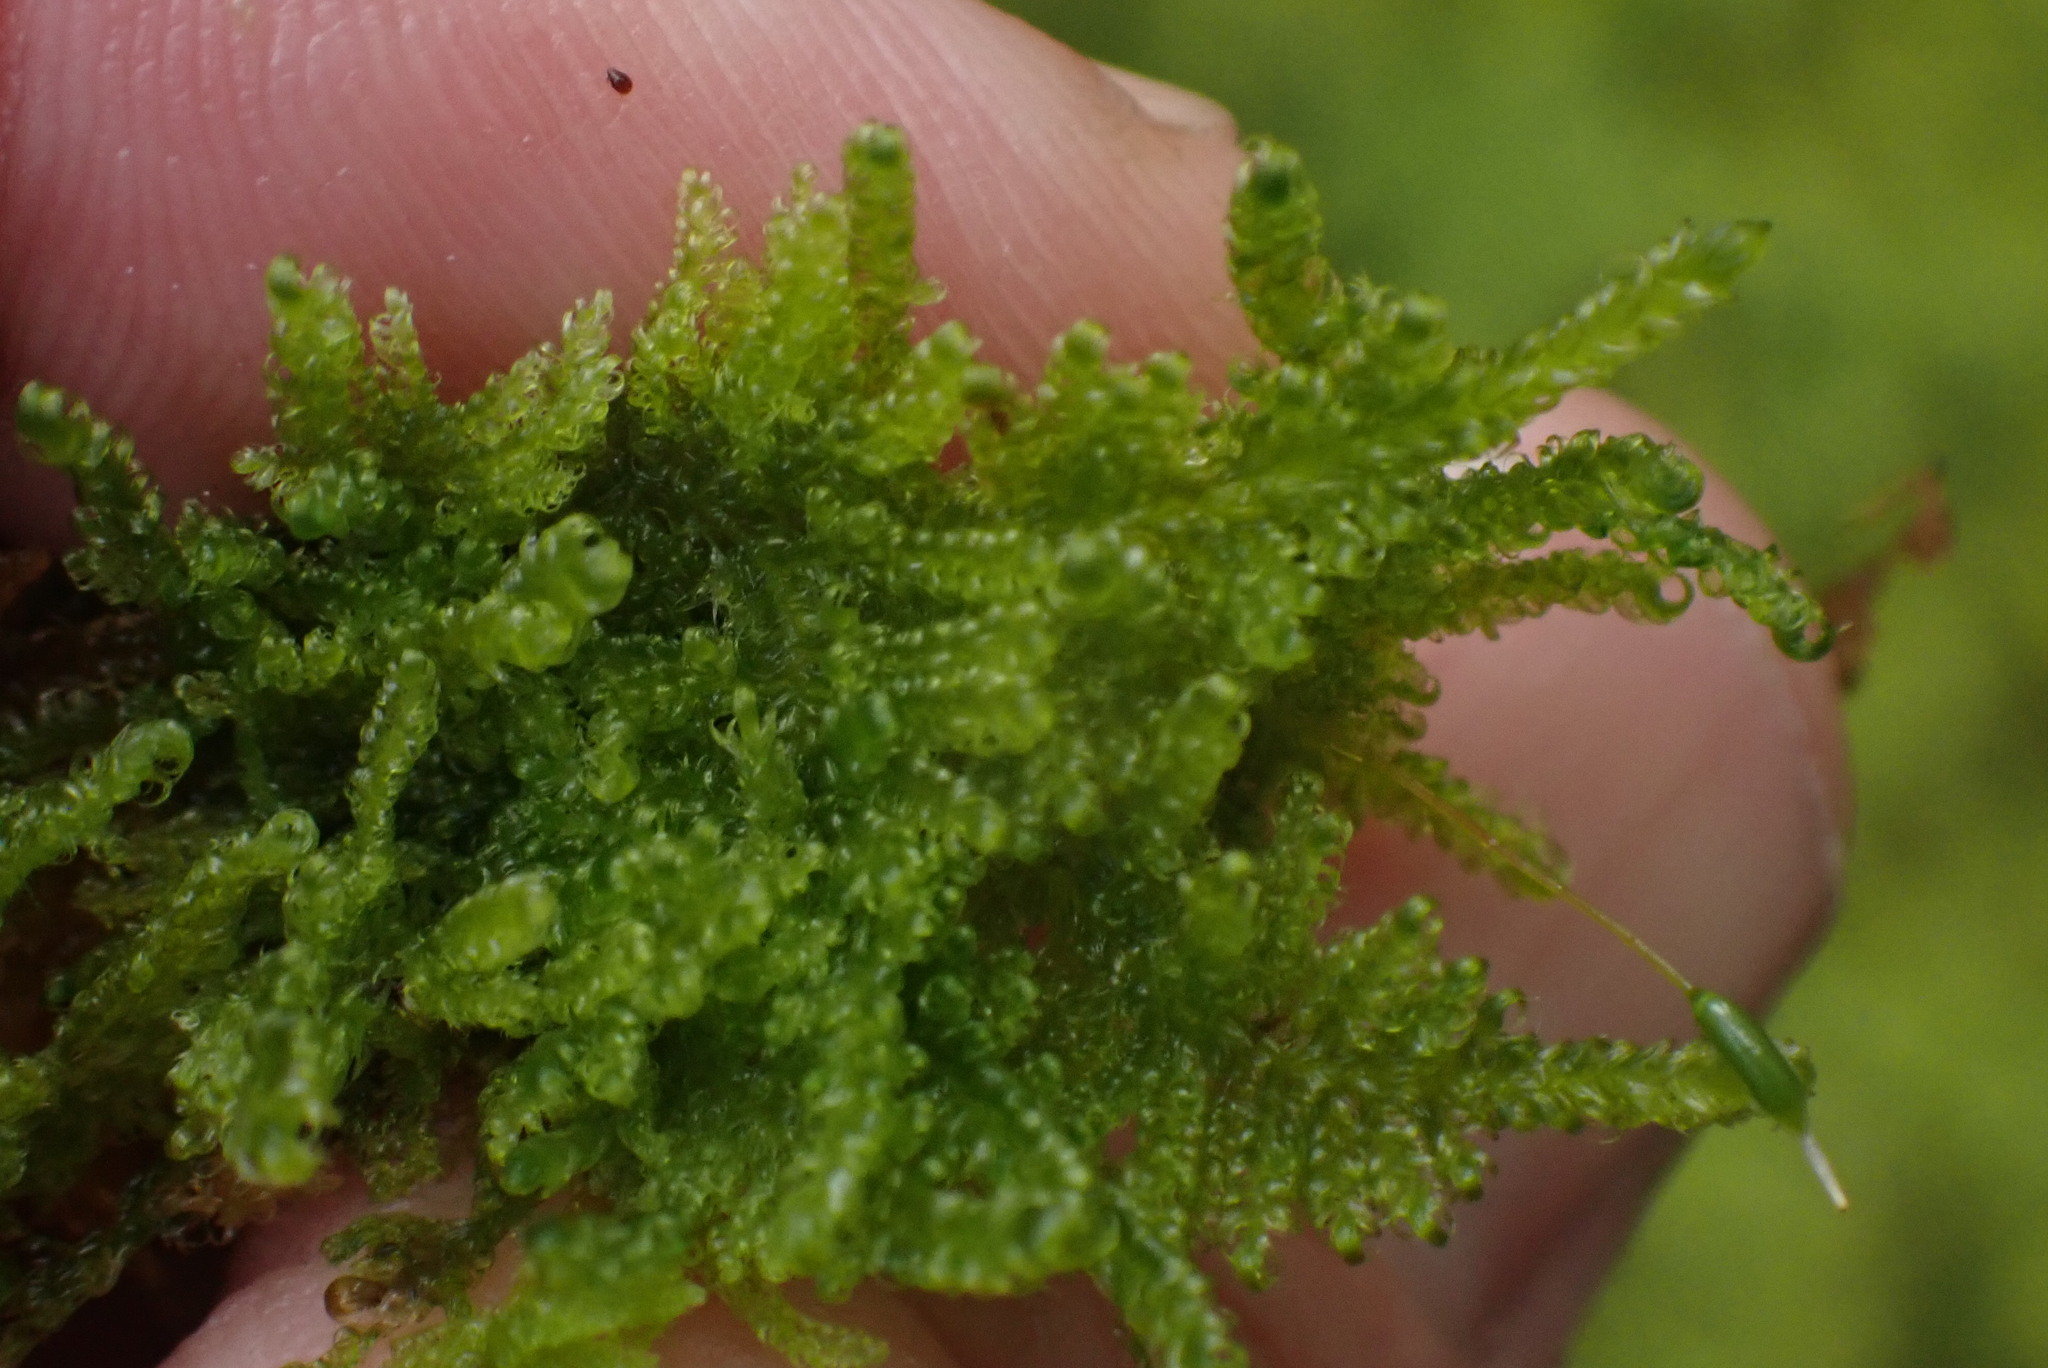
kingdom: Plantae
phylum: Bryophyta
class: Bryopsida
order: Hypnales
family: Stereodontaceae
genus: Stereodon
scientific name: Stereodon subimponens
